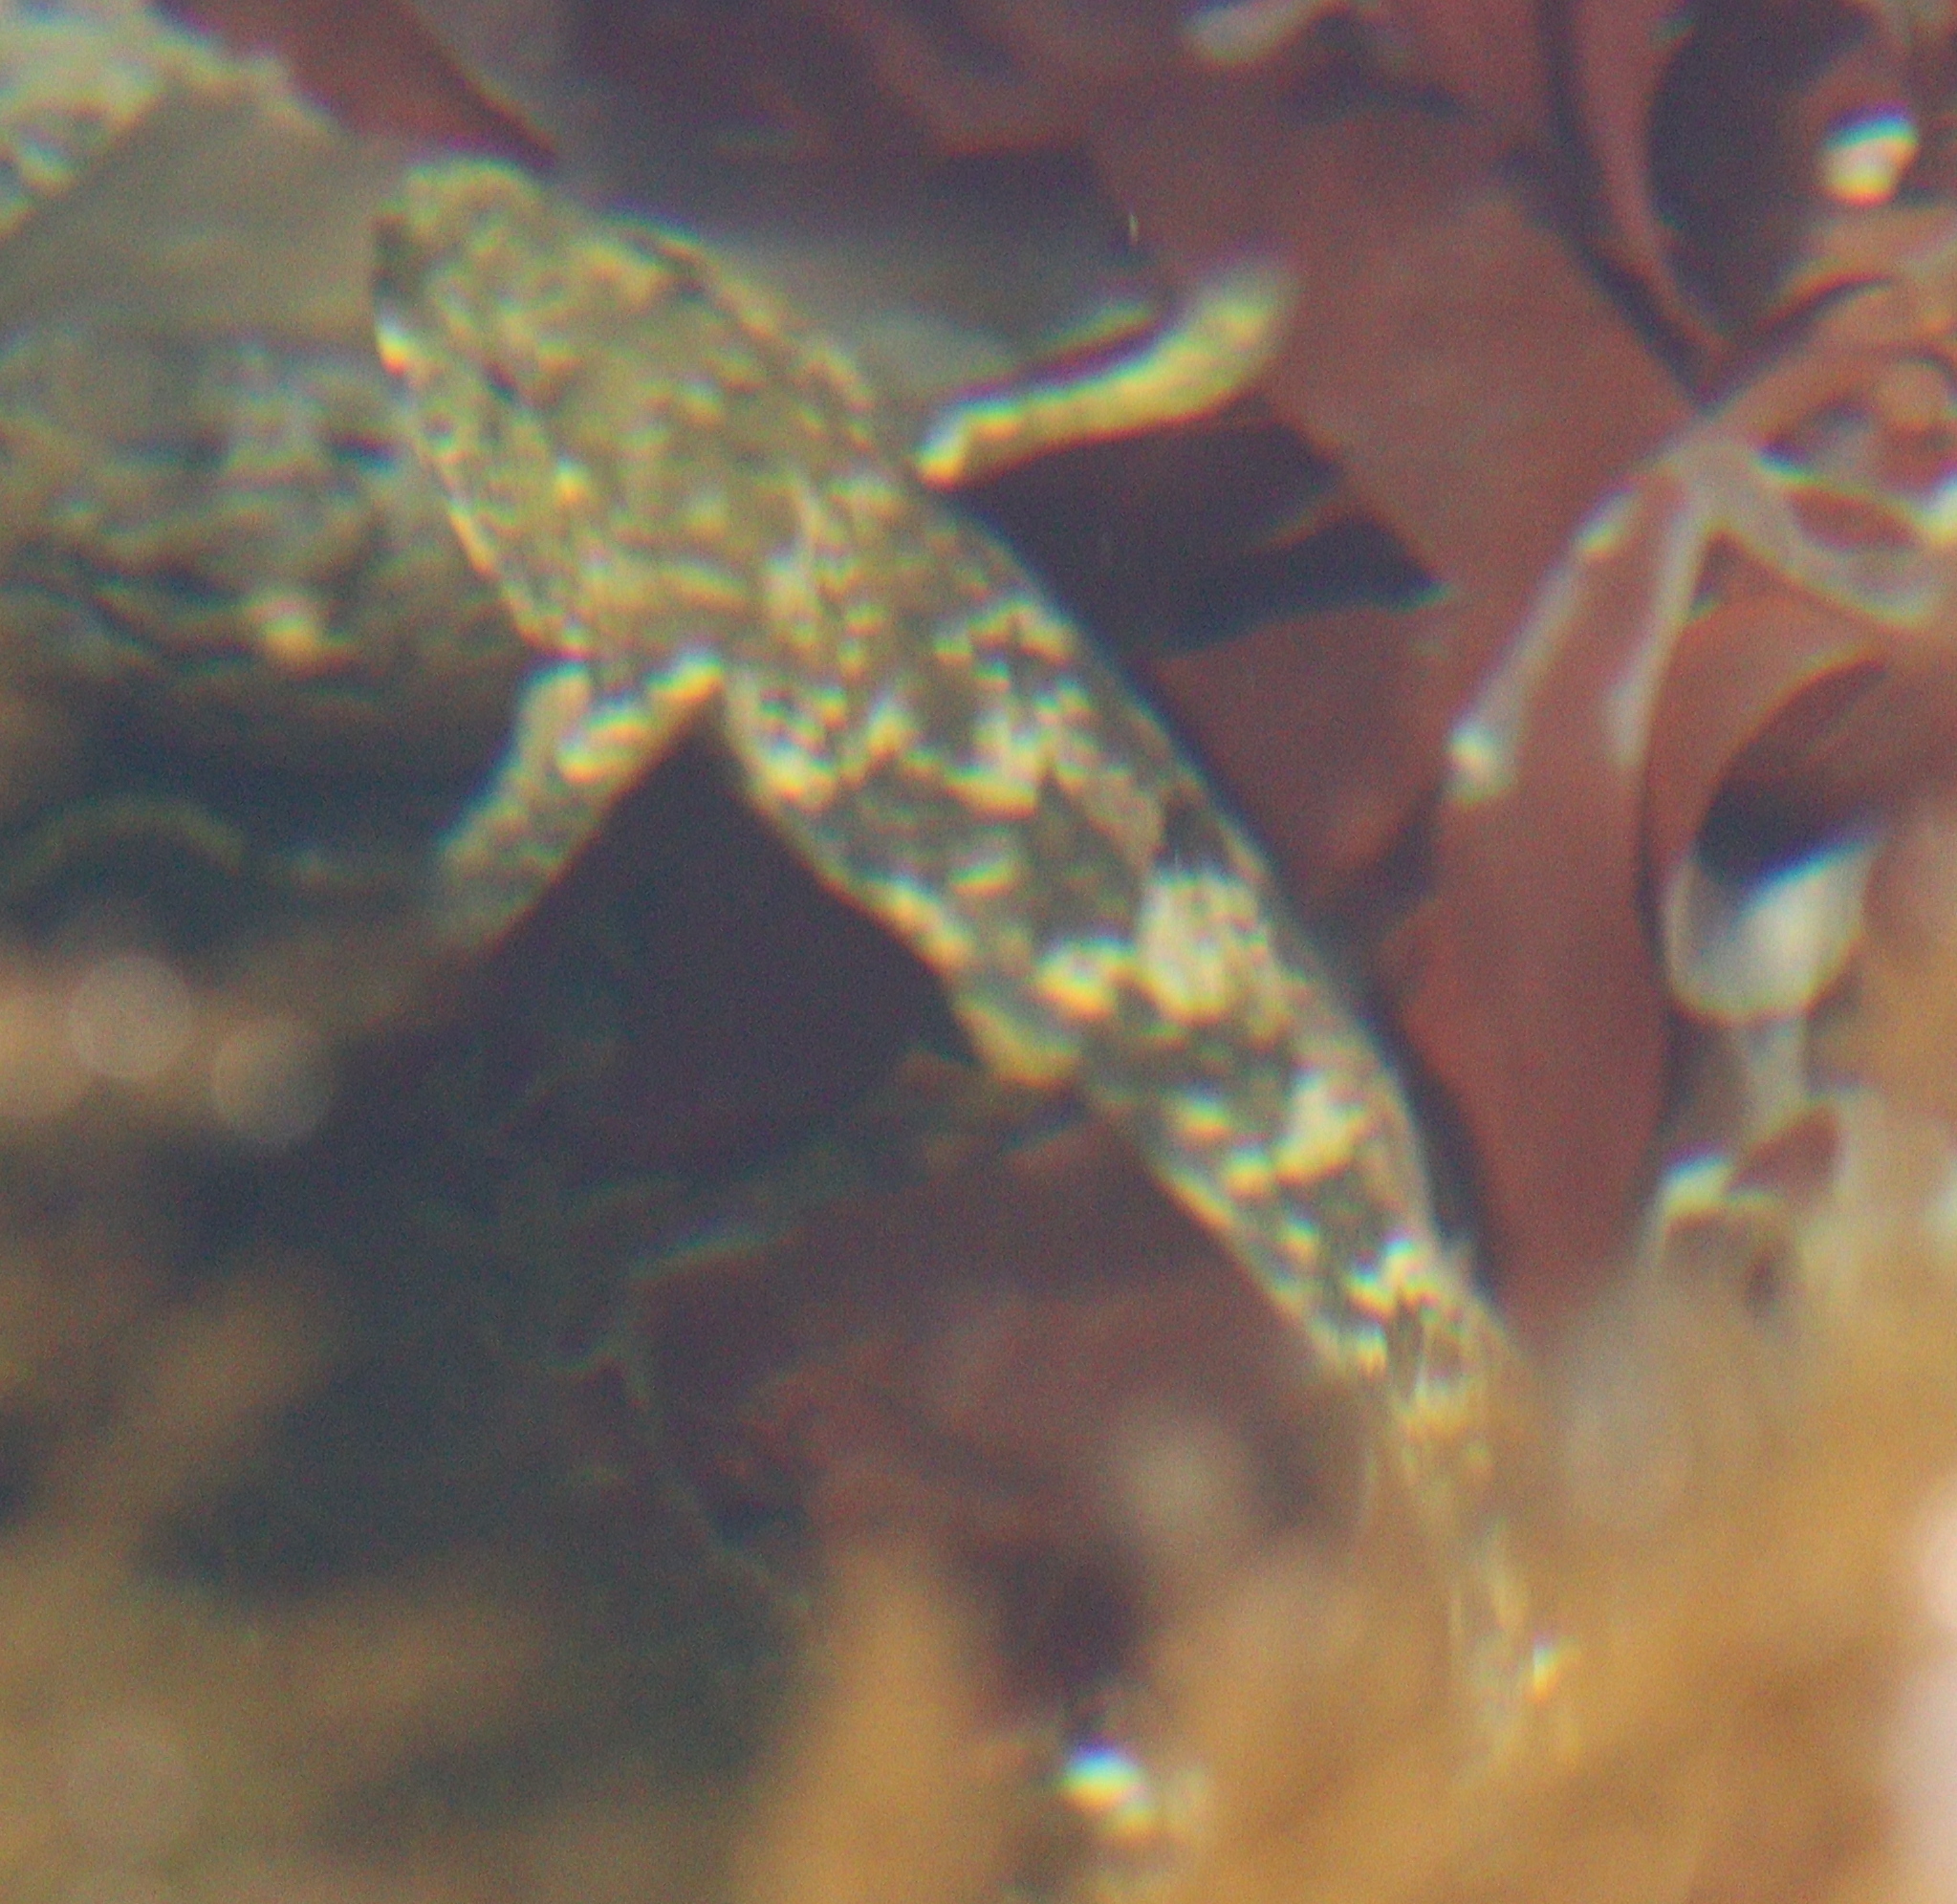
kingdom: Animalia
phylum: Chordata
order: Perciformes
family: Gobiidae
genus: Gobius
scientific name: Gobius cobitis
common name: Giant goby
